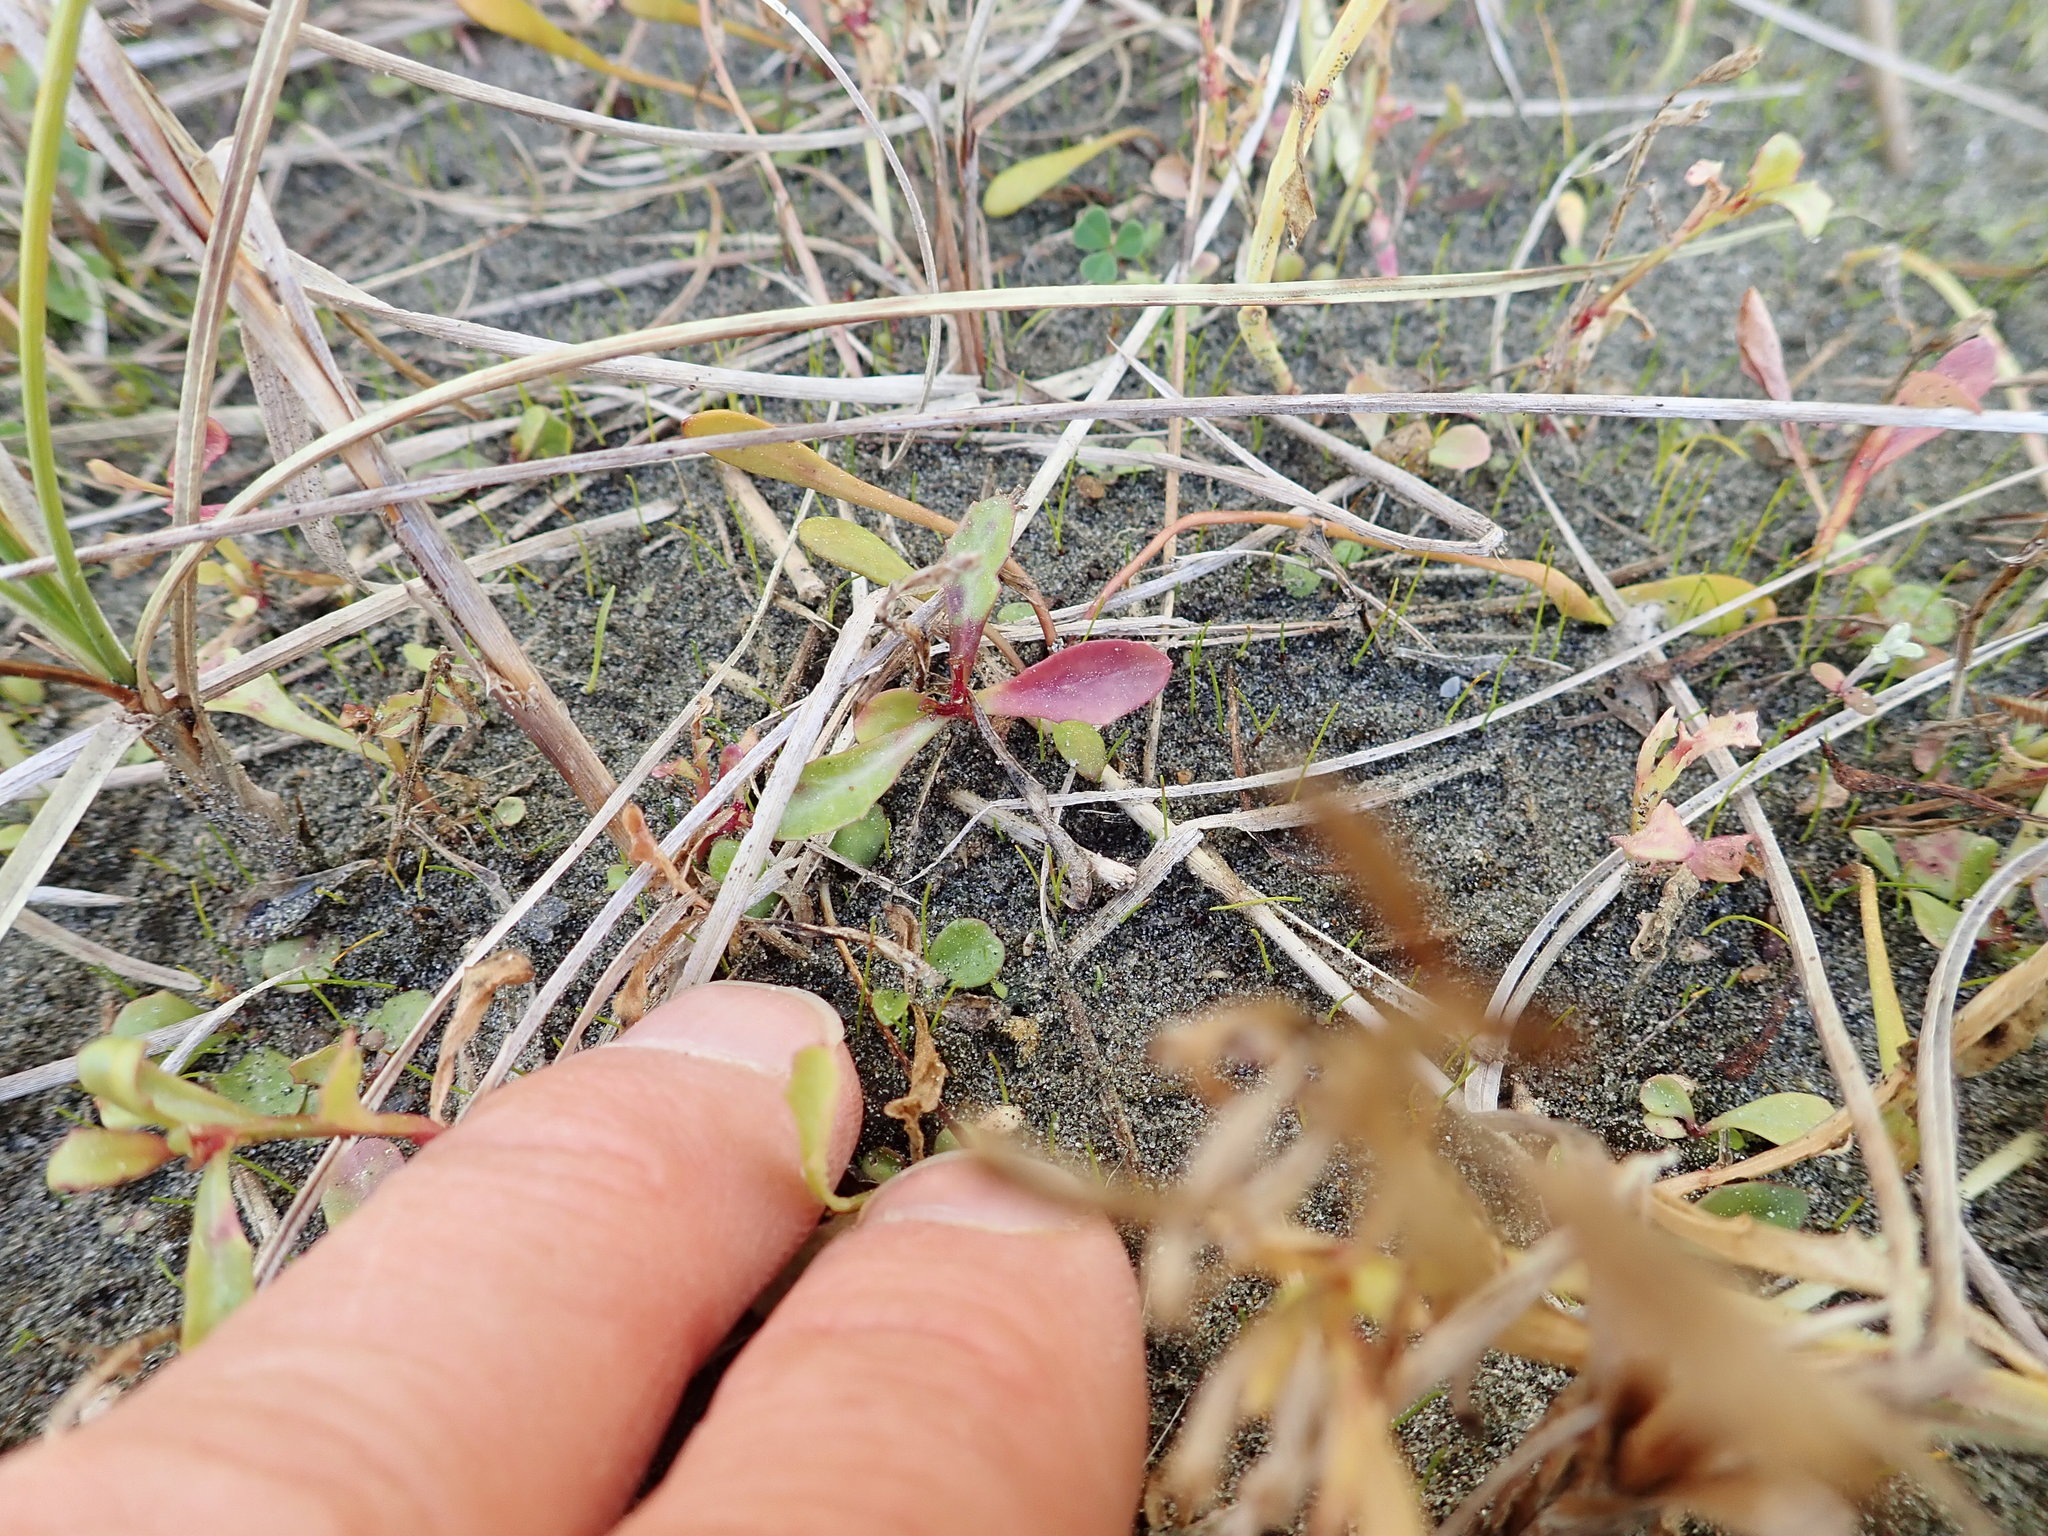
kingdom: Plantae
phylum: Tracheophyta
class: Magnoliopsida
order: Asterales
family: Campanulaceae
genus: Lobelia
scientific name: Lobelia anceps
